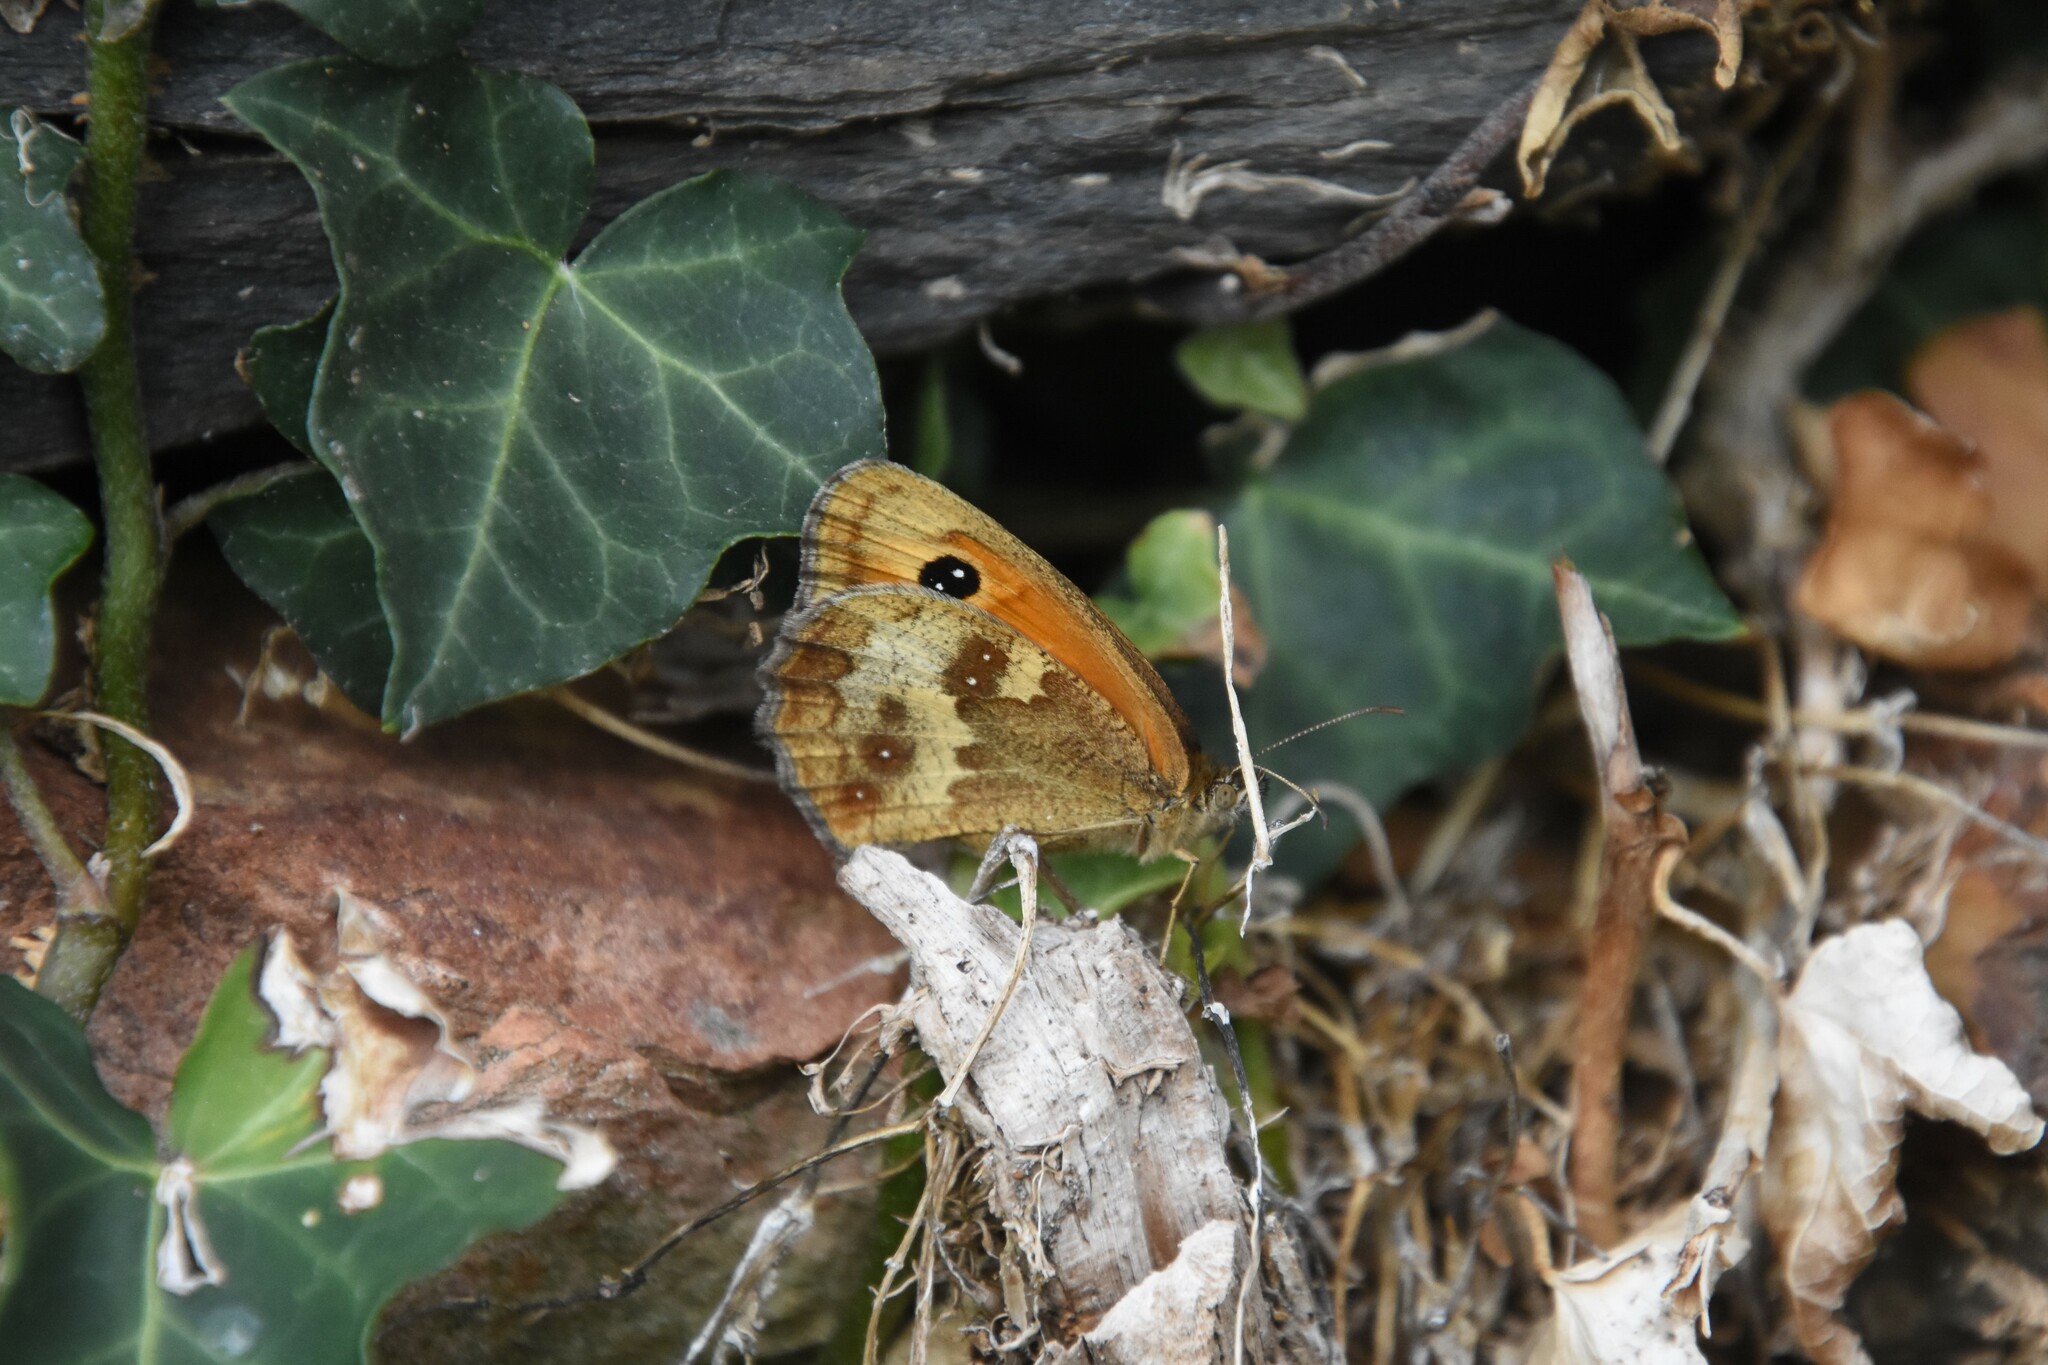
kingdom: Animalia
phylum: Arthropoda
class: Insecta
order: Lepidoptera
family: Nymphalidae
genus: Pyronia
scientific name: Pyronia tithonus
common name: Gatekeeper
